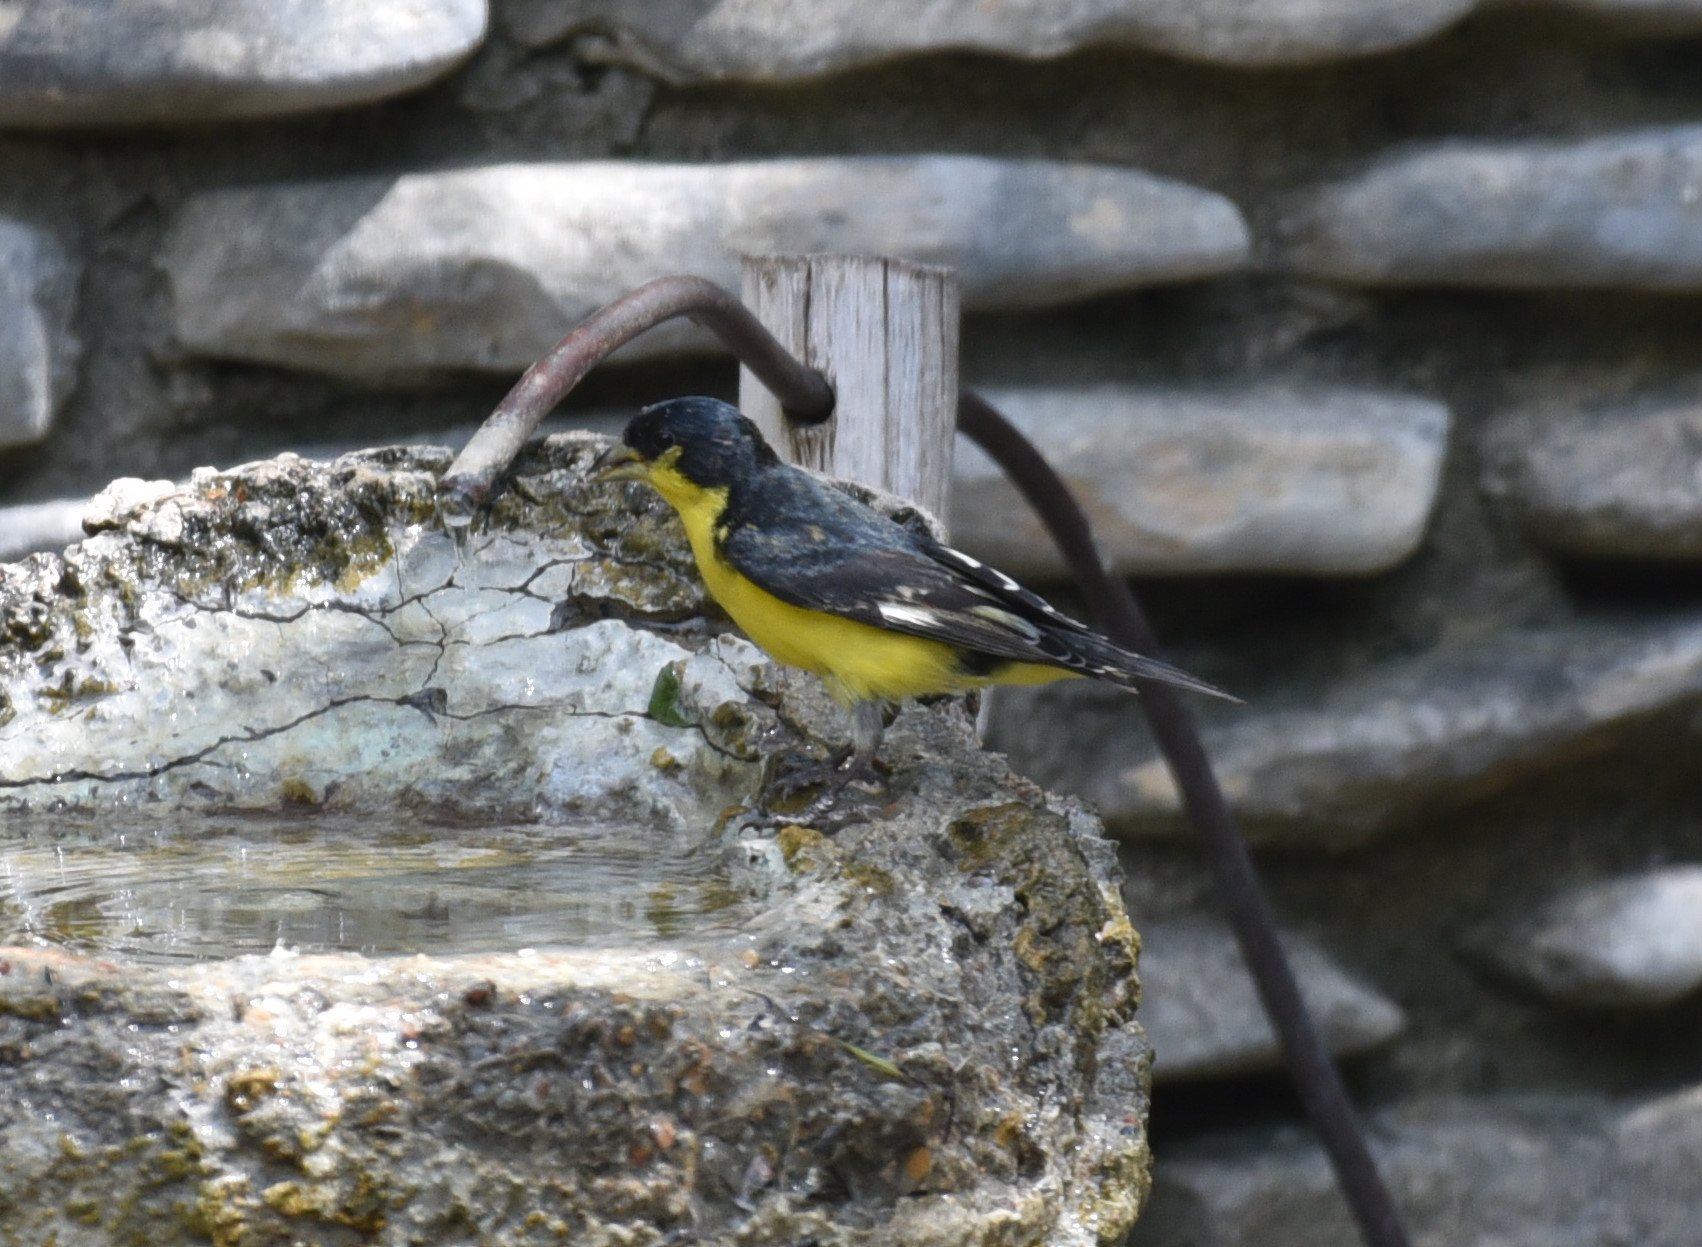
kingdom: Animalia
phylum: Chordata
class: Aves
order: Passeriformes
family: Fringillidae
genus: Spinus
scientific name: Spinus psaltria
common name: Lesser goldfinch
